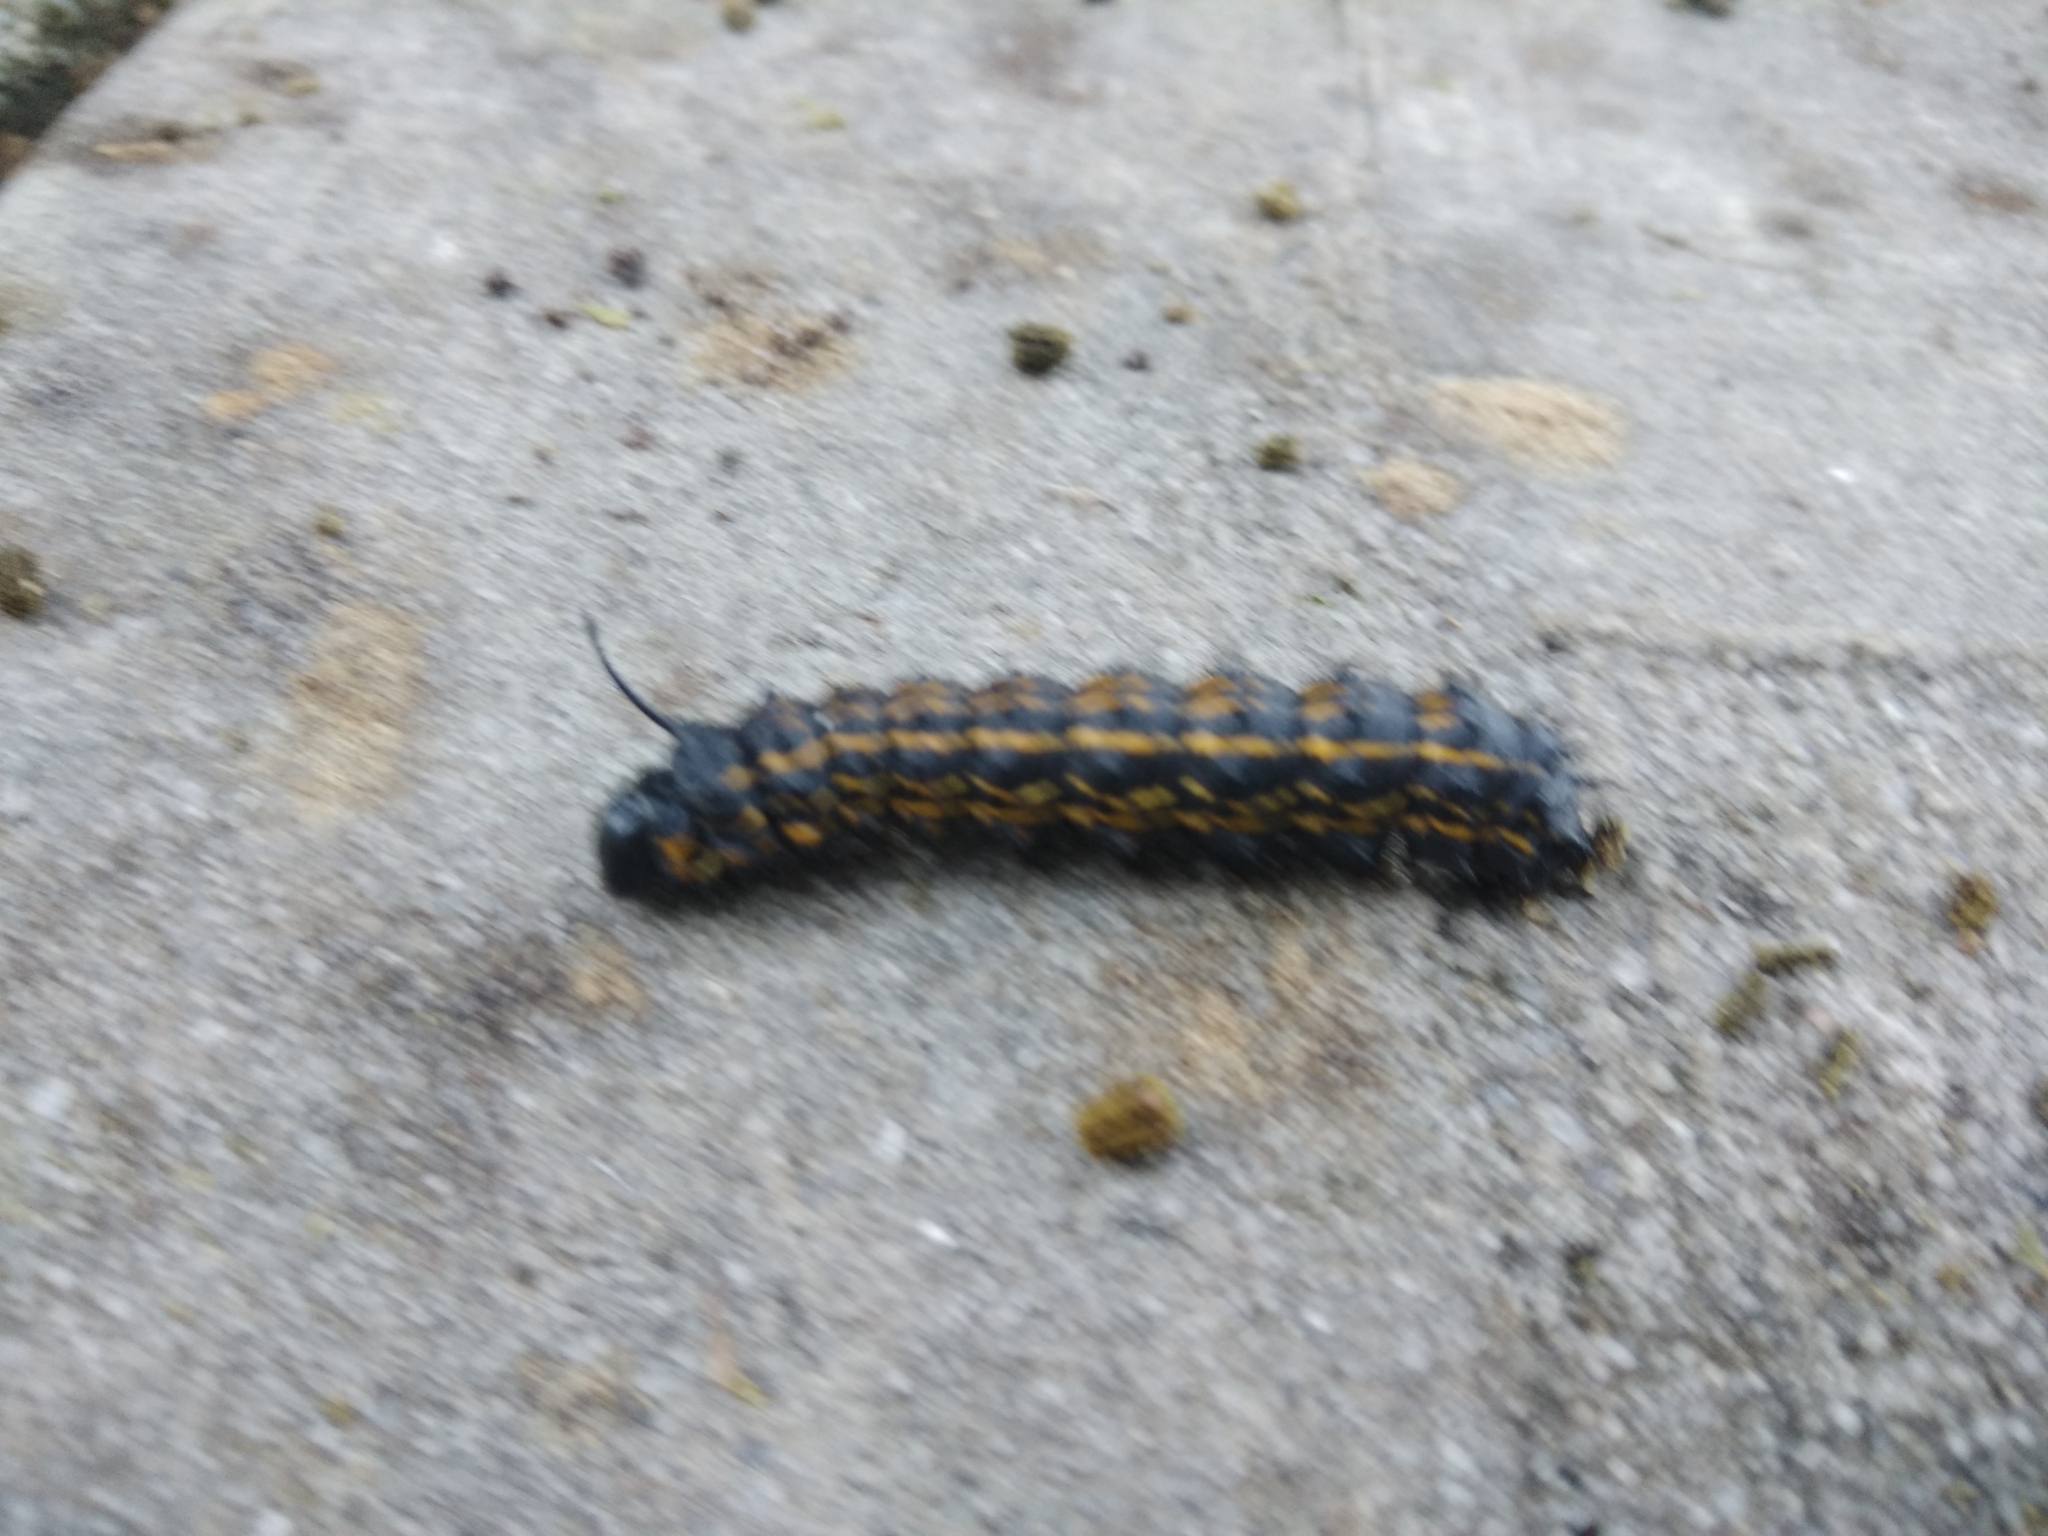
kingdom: Animalia
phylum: Arthropoda
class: Insecta
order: Lepidoptera
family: Saturniidae
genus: Anisota
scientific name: Anisota peigleri
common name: Peigler's oakworm moth
